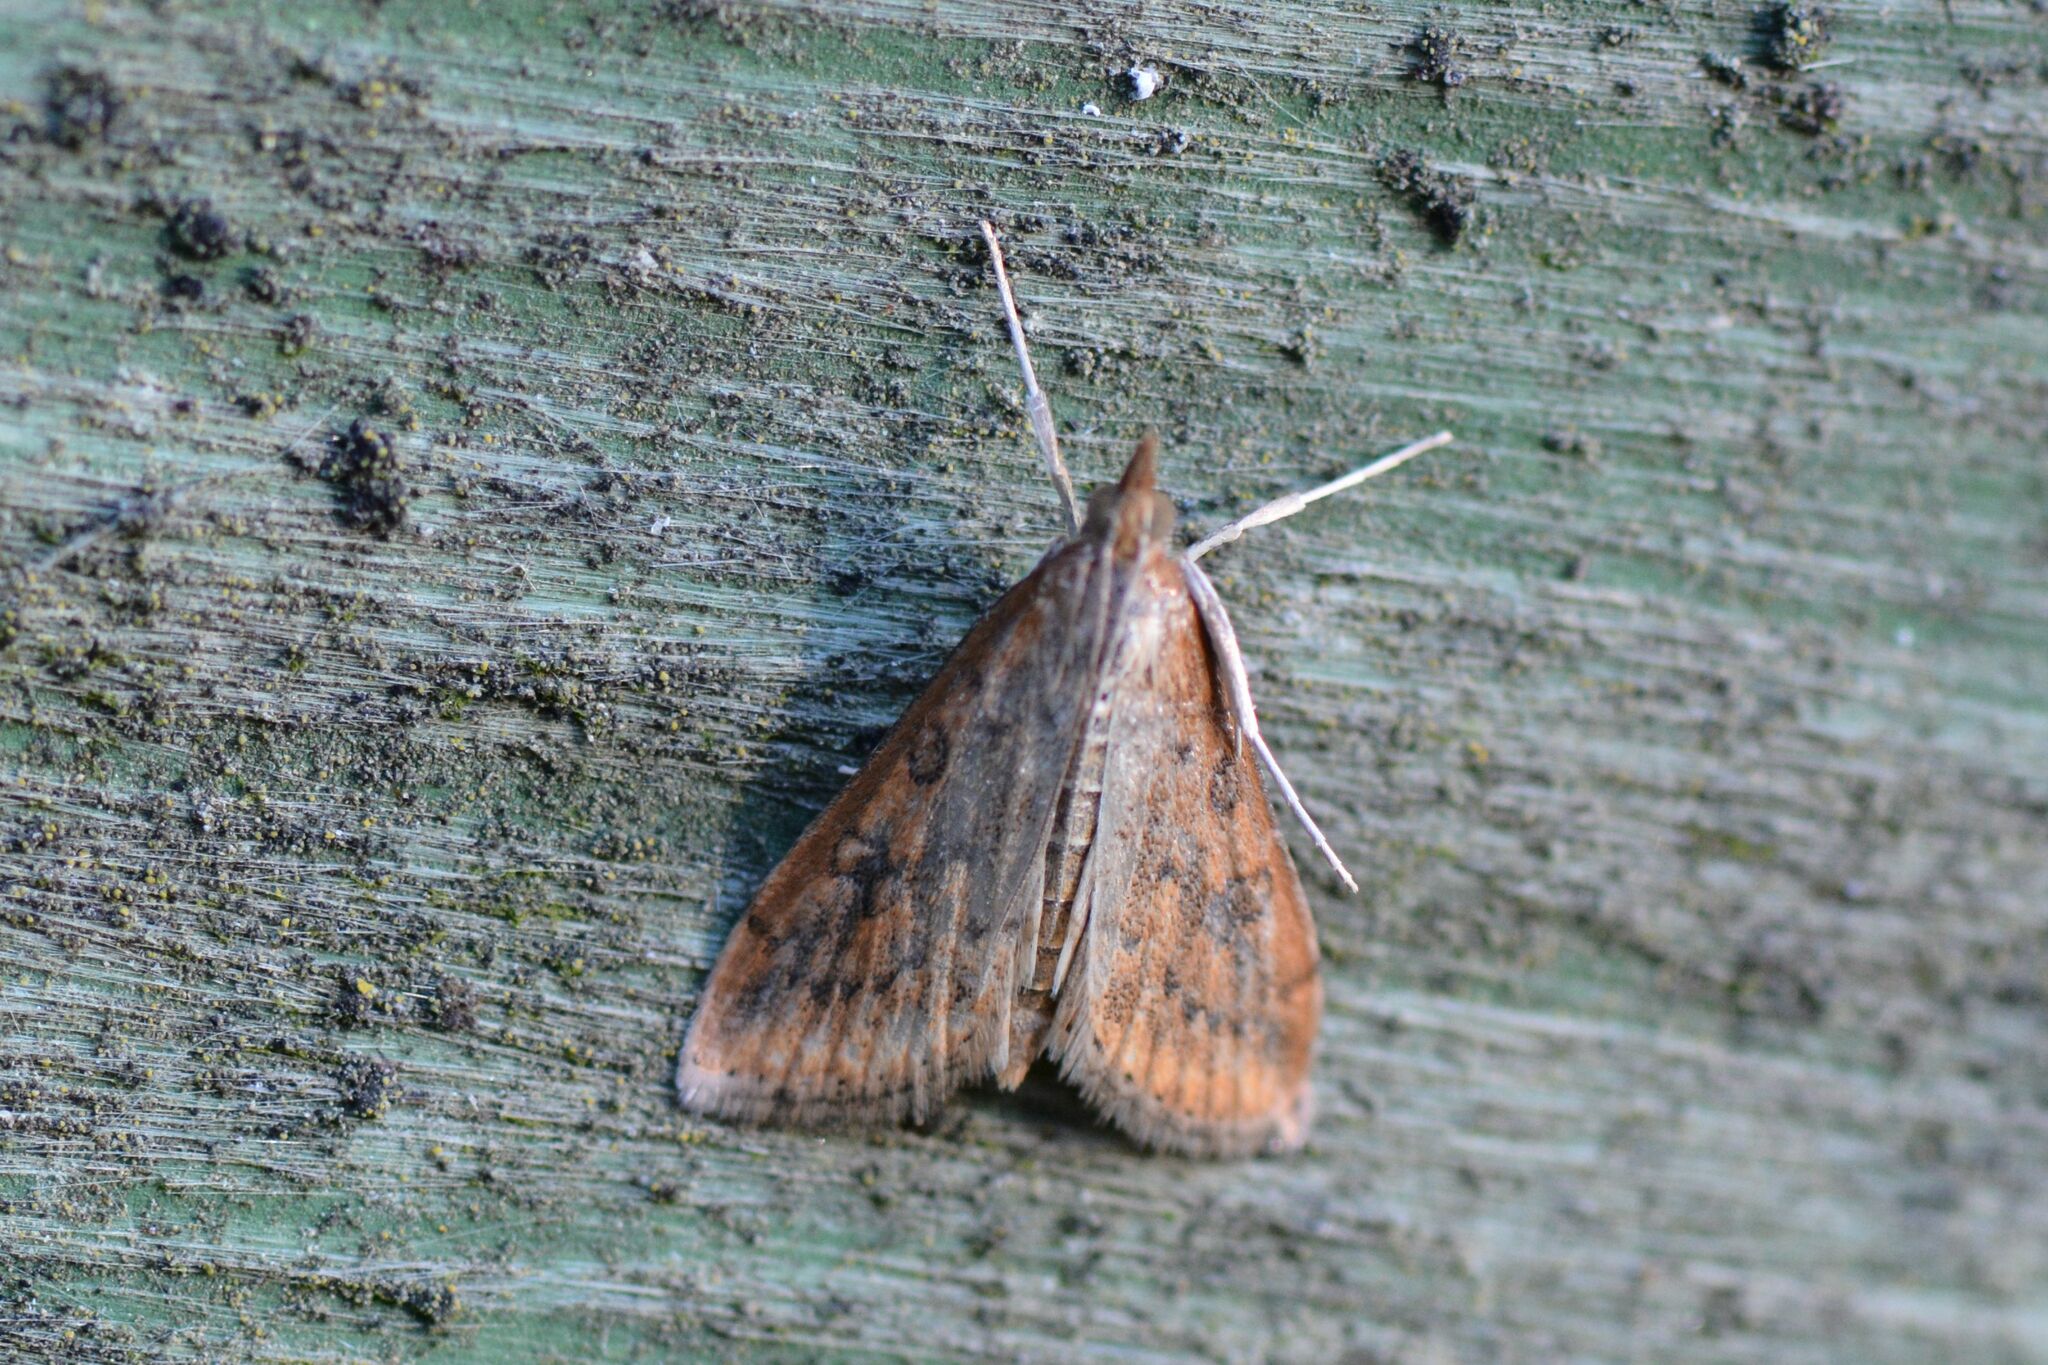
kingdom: Animalia
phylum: Arthropoda
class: Insecta
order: Lepidoptera
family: Crambidae
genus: Udea
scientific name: Udea ferrugalis
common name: Rusty dot
